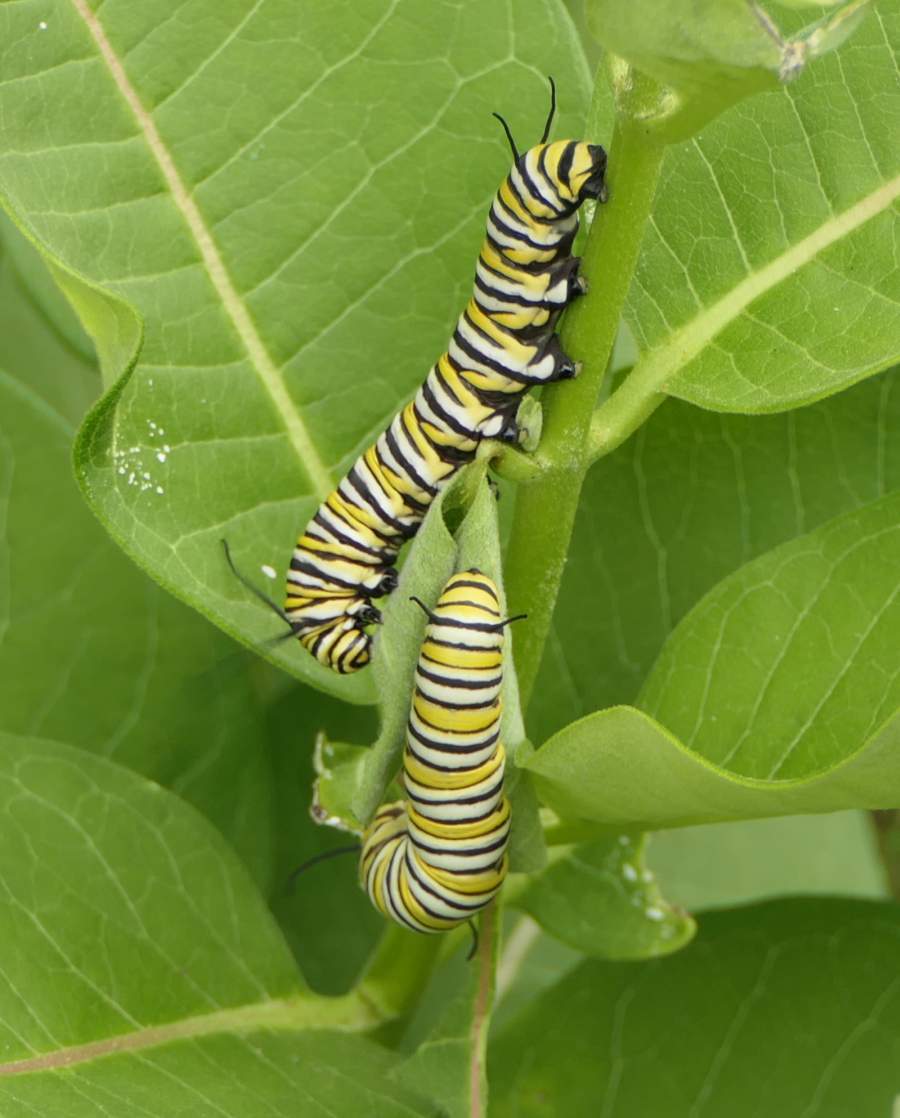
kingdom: Animalia
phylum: Arthropoda
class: Insecta
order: Lepidoptera
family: Nymphalidae
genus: Danaus
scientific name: Danaus plexippus
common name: Monarch
